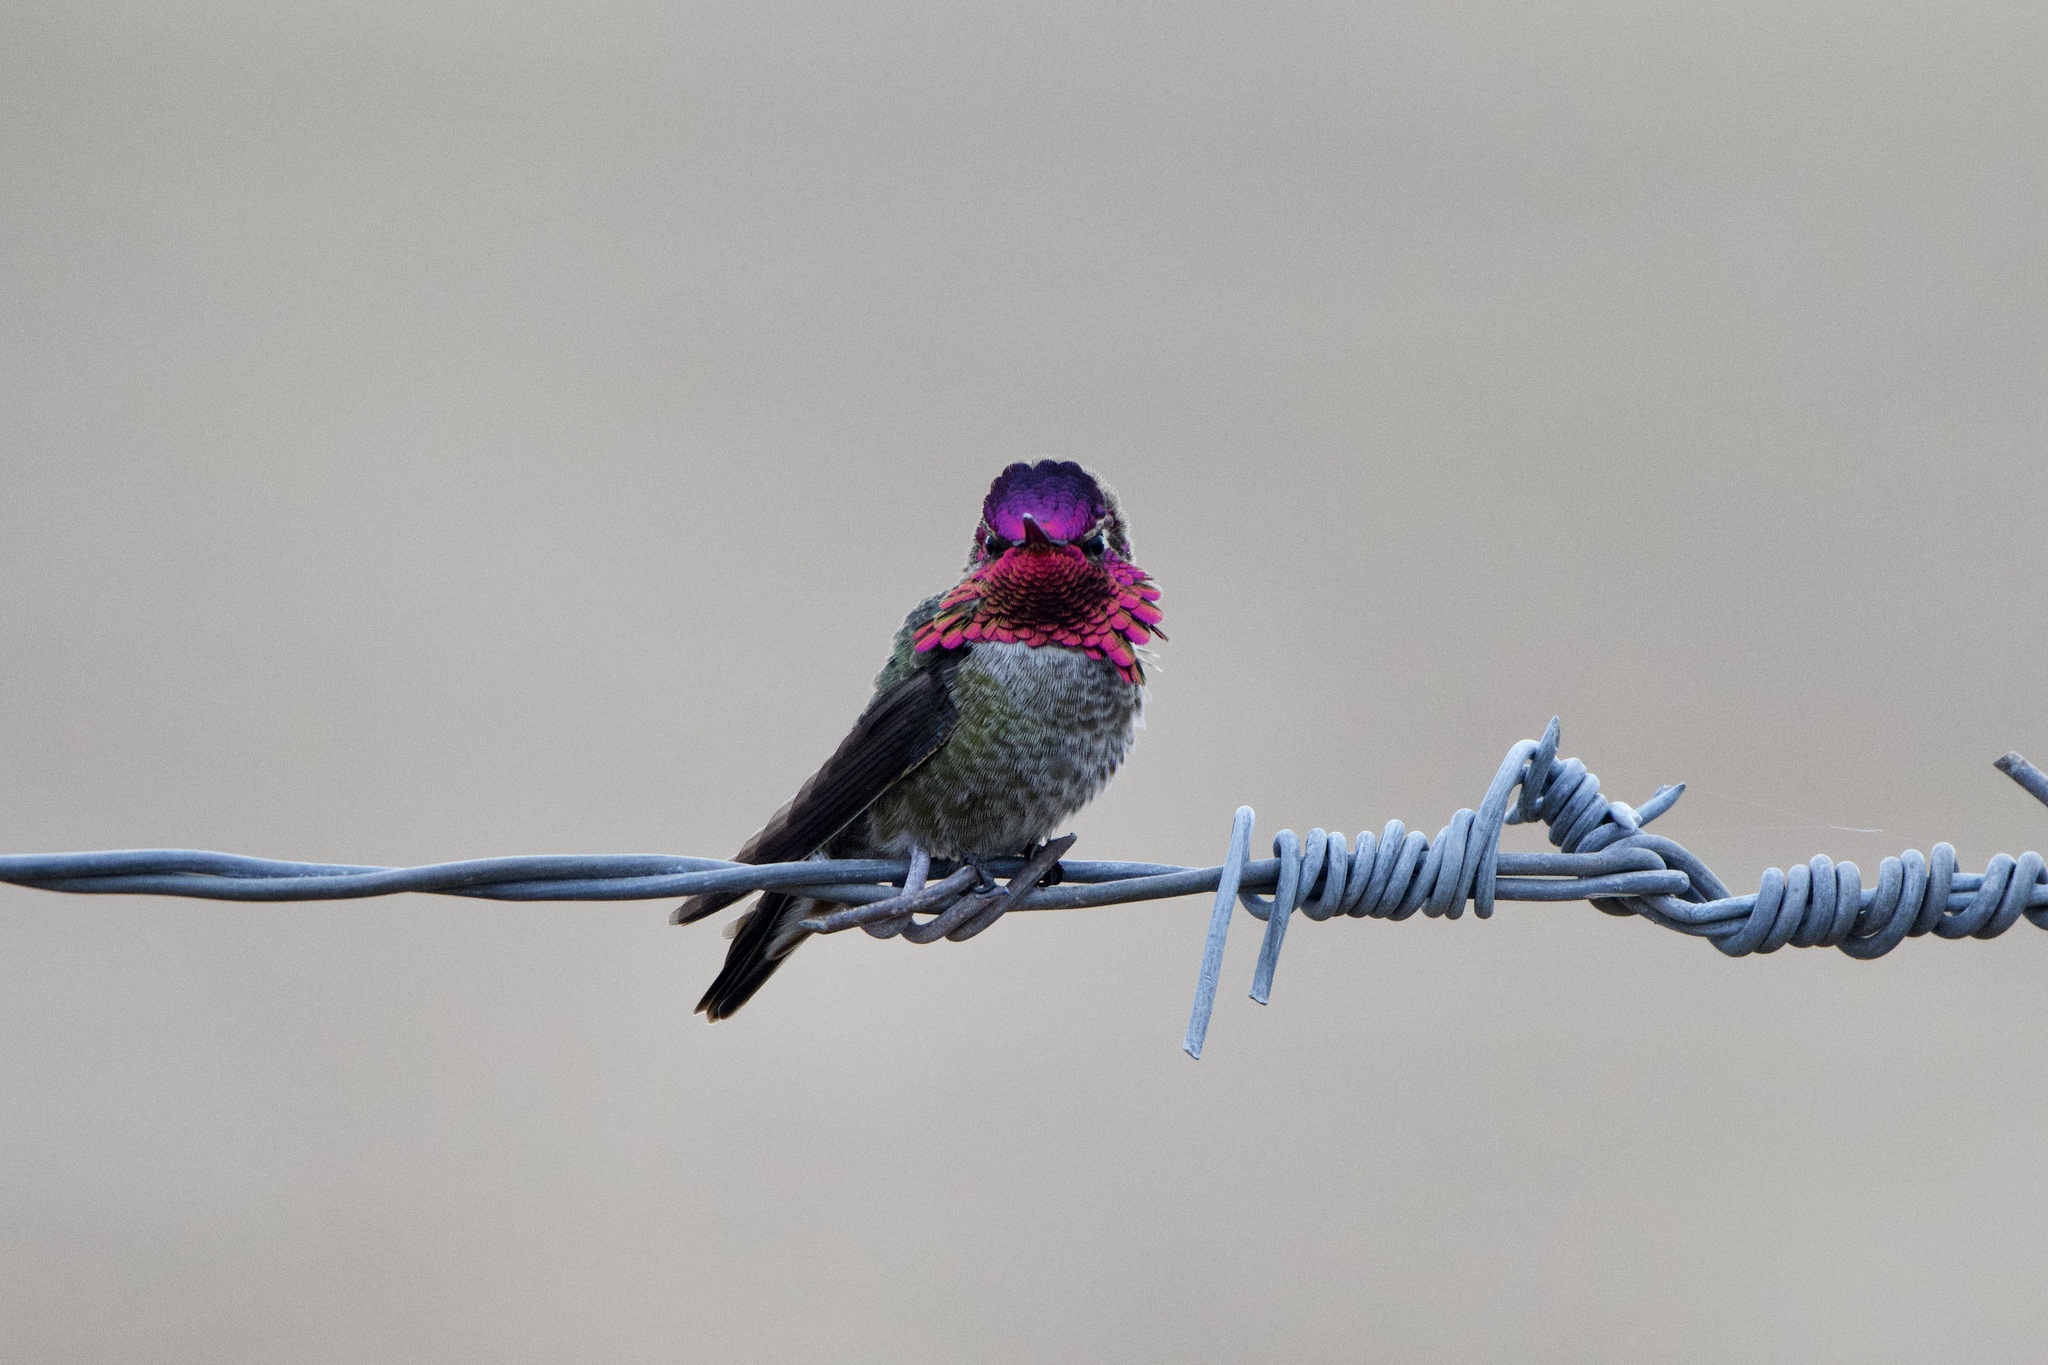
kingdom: Animalia
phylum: Chordata
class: Aves
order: Apodiformes
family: Trochilidae
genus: Calypte
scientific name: Calypte anna
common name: Anna's hummingbird
